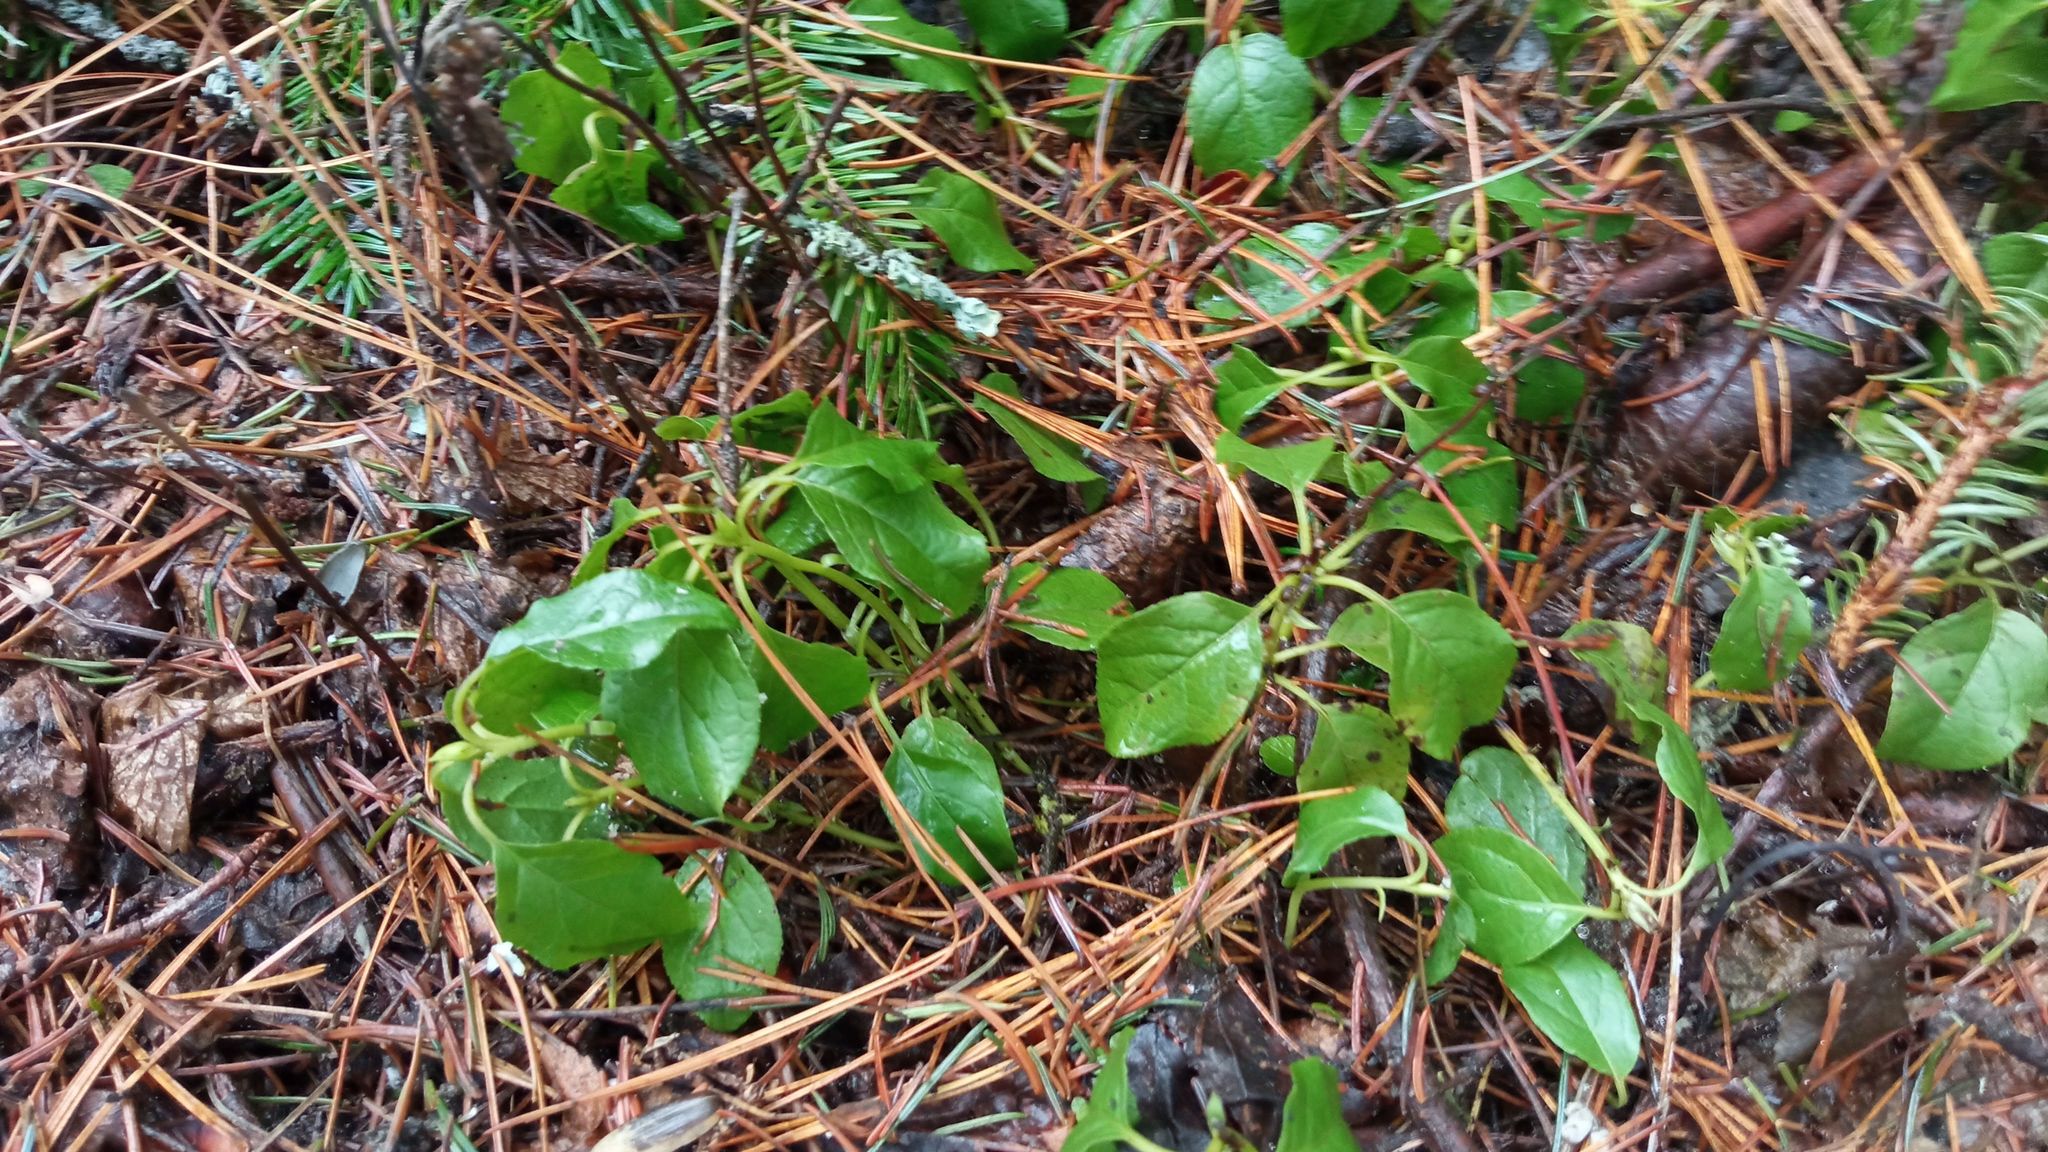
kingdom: Plantae
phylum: Tracheophyta
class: Magnoliopsida
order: Ericales
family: Ericaceae
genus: Orthilia
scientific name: Orthilia secunda
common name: One-sided orthilia
